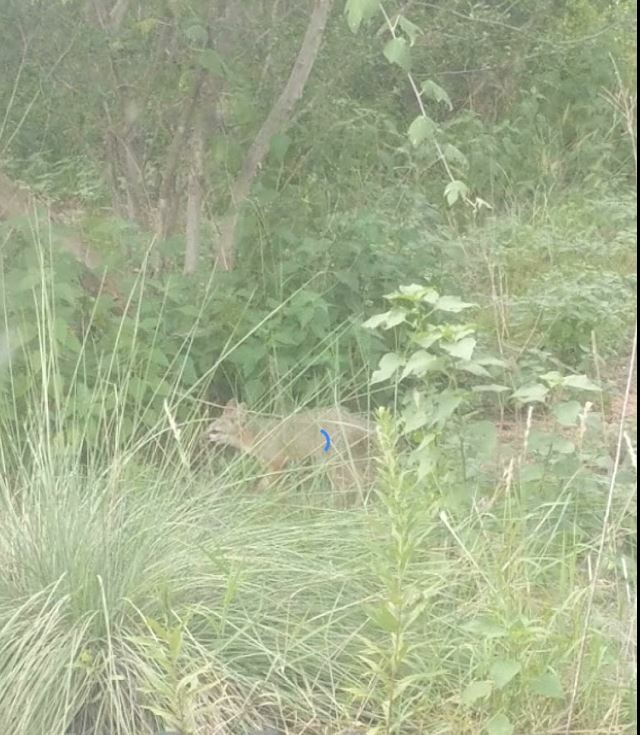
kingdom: Animalia
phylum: Chordata
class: Mammalia
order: Carnivora
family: Canidae
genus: Urocyon
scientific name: Urocyon cinereoargenteus
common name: Gray fox
